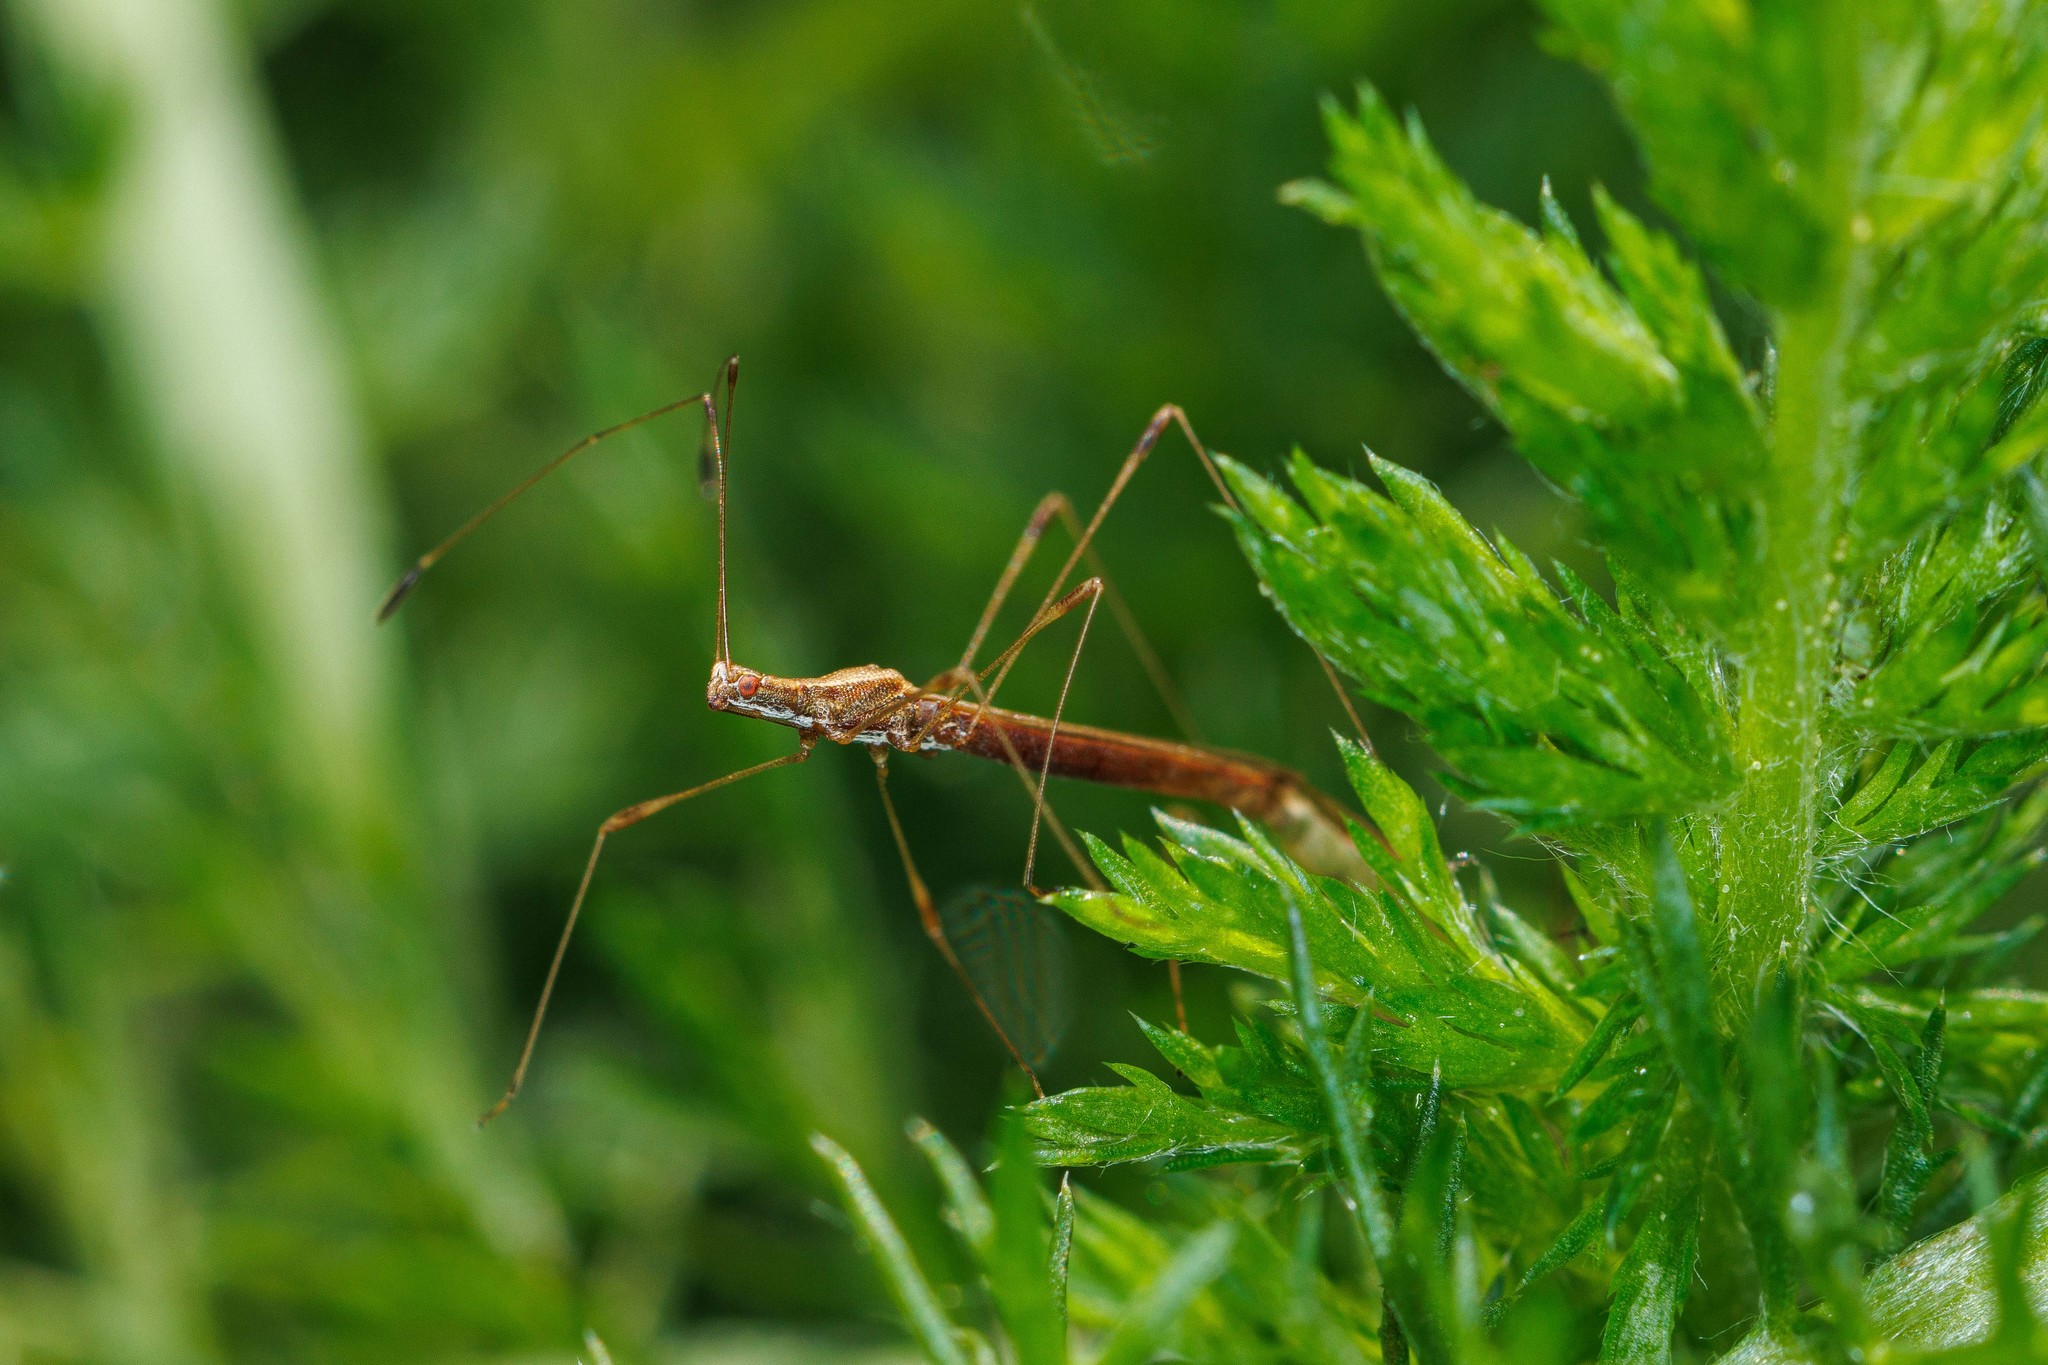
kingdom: Animalia
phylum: Arthropoda
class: Insecta
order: Hemiptera
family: Berytidae
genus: Neoneides
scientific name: Neoneides muticus
